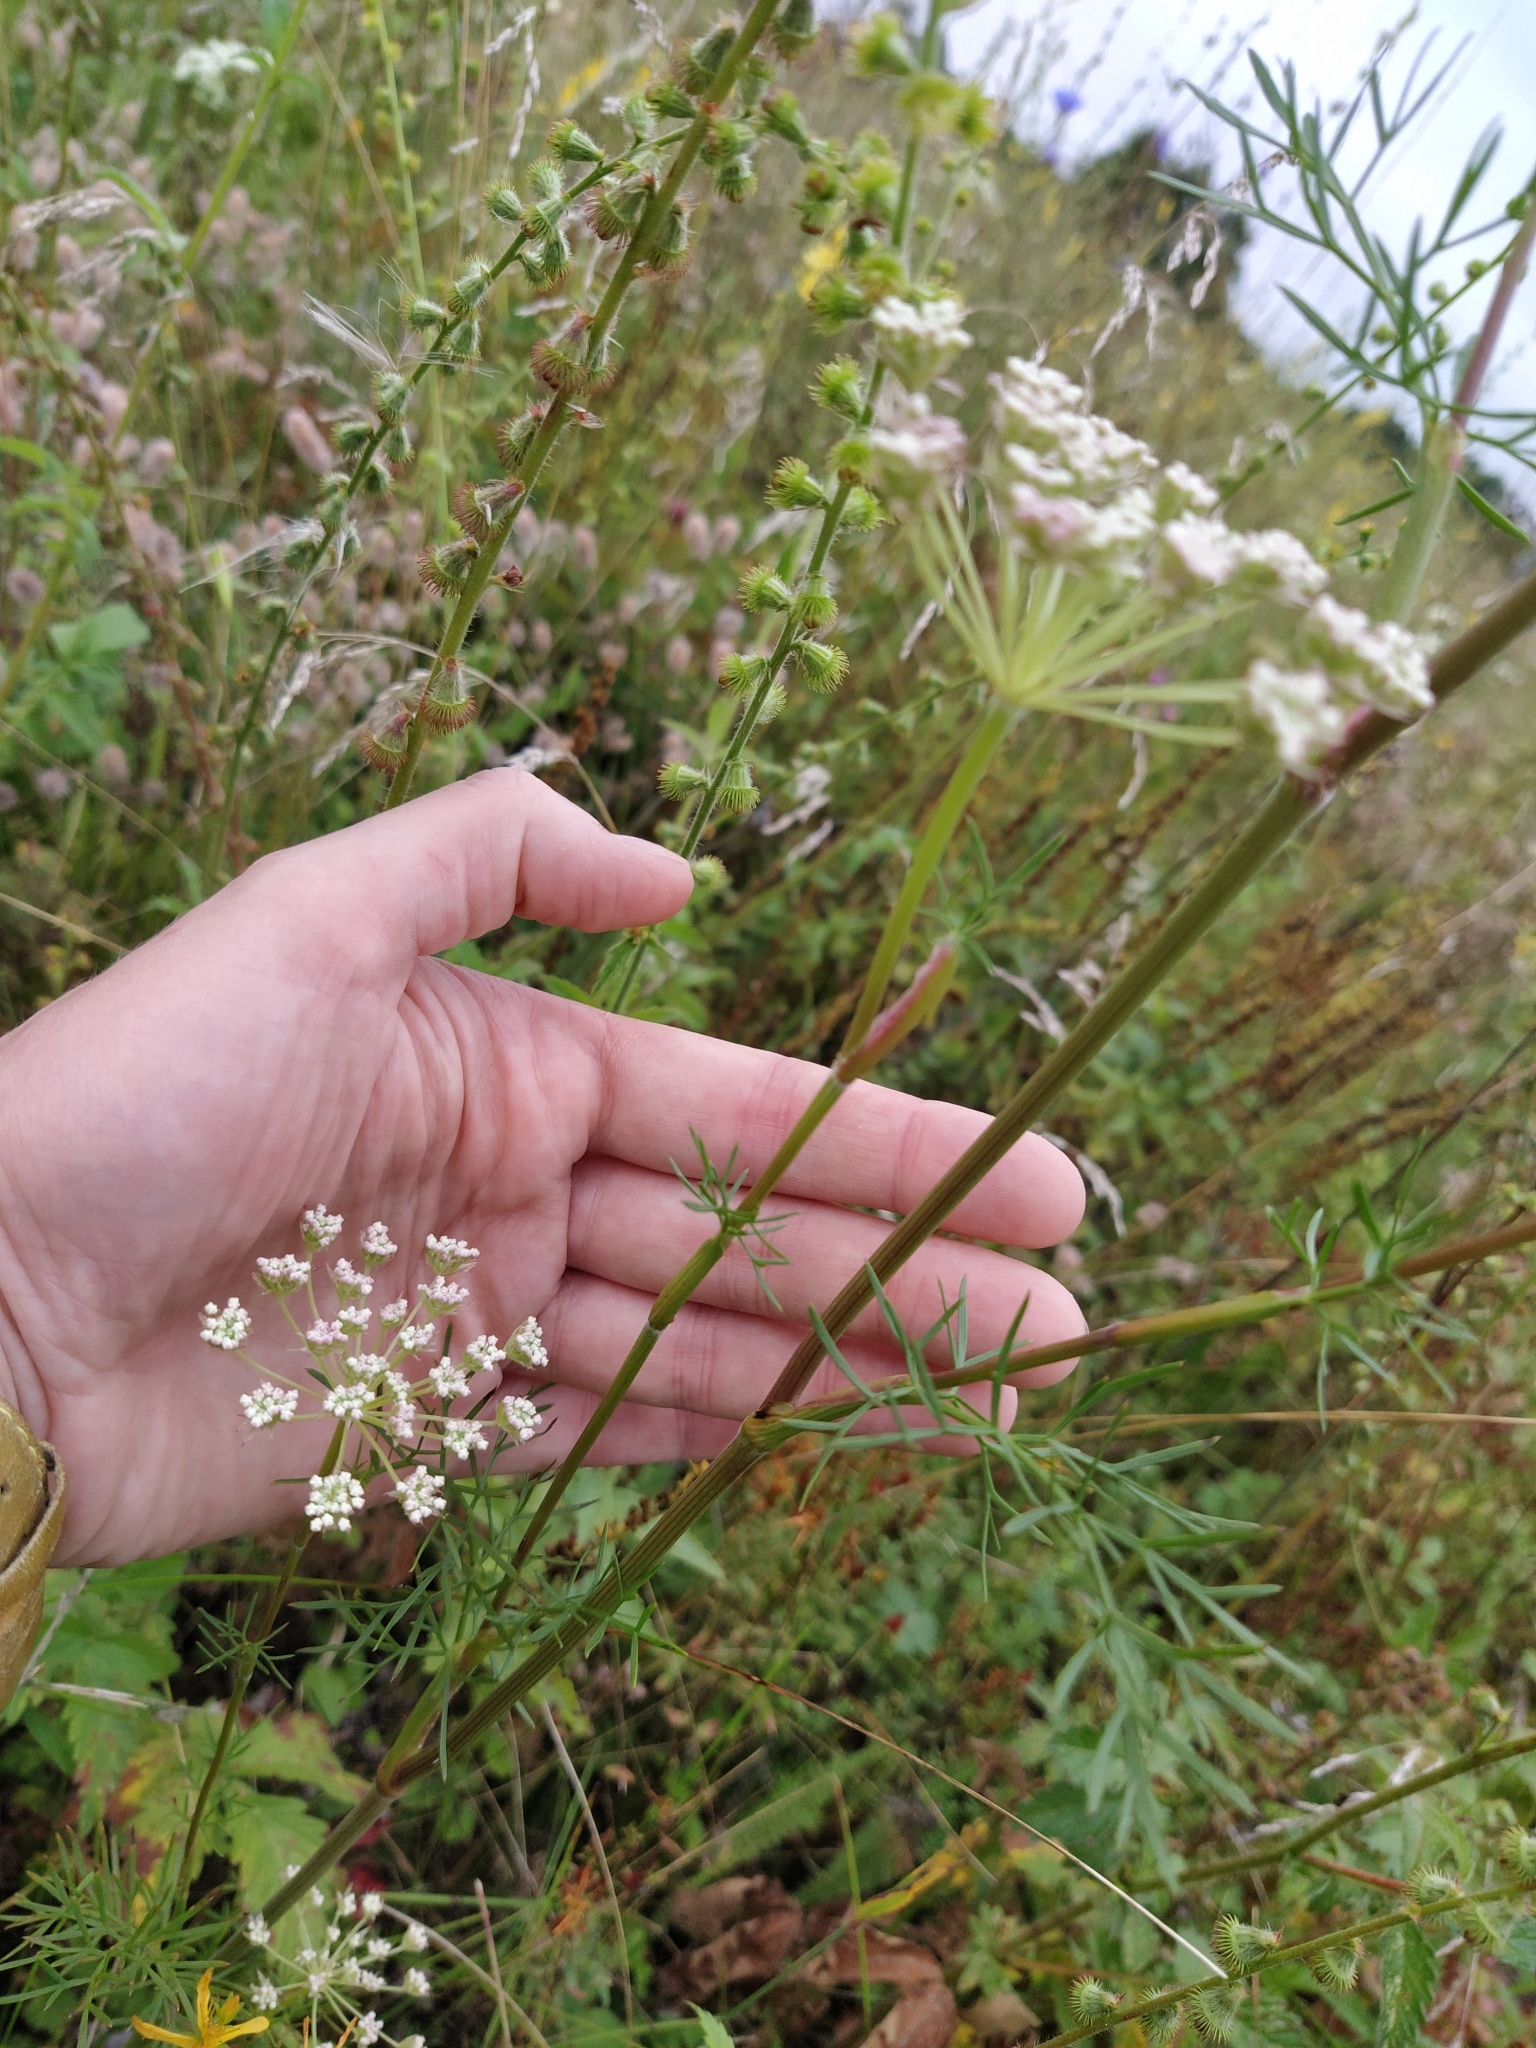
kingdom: Plantae
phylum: Tracheophyta
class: Magnoliopsida
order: Apiales
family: Apiaceae
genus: Seseli
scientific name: Seseli annuum
